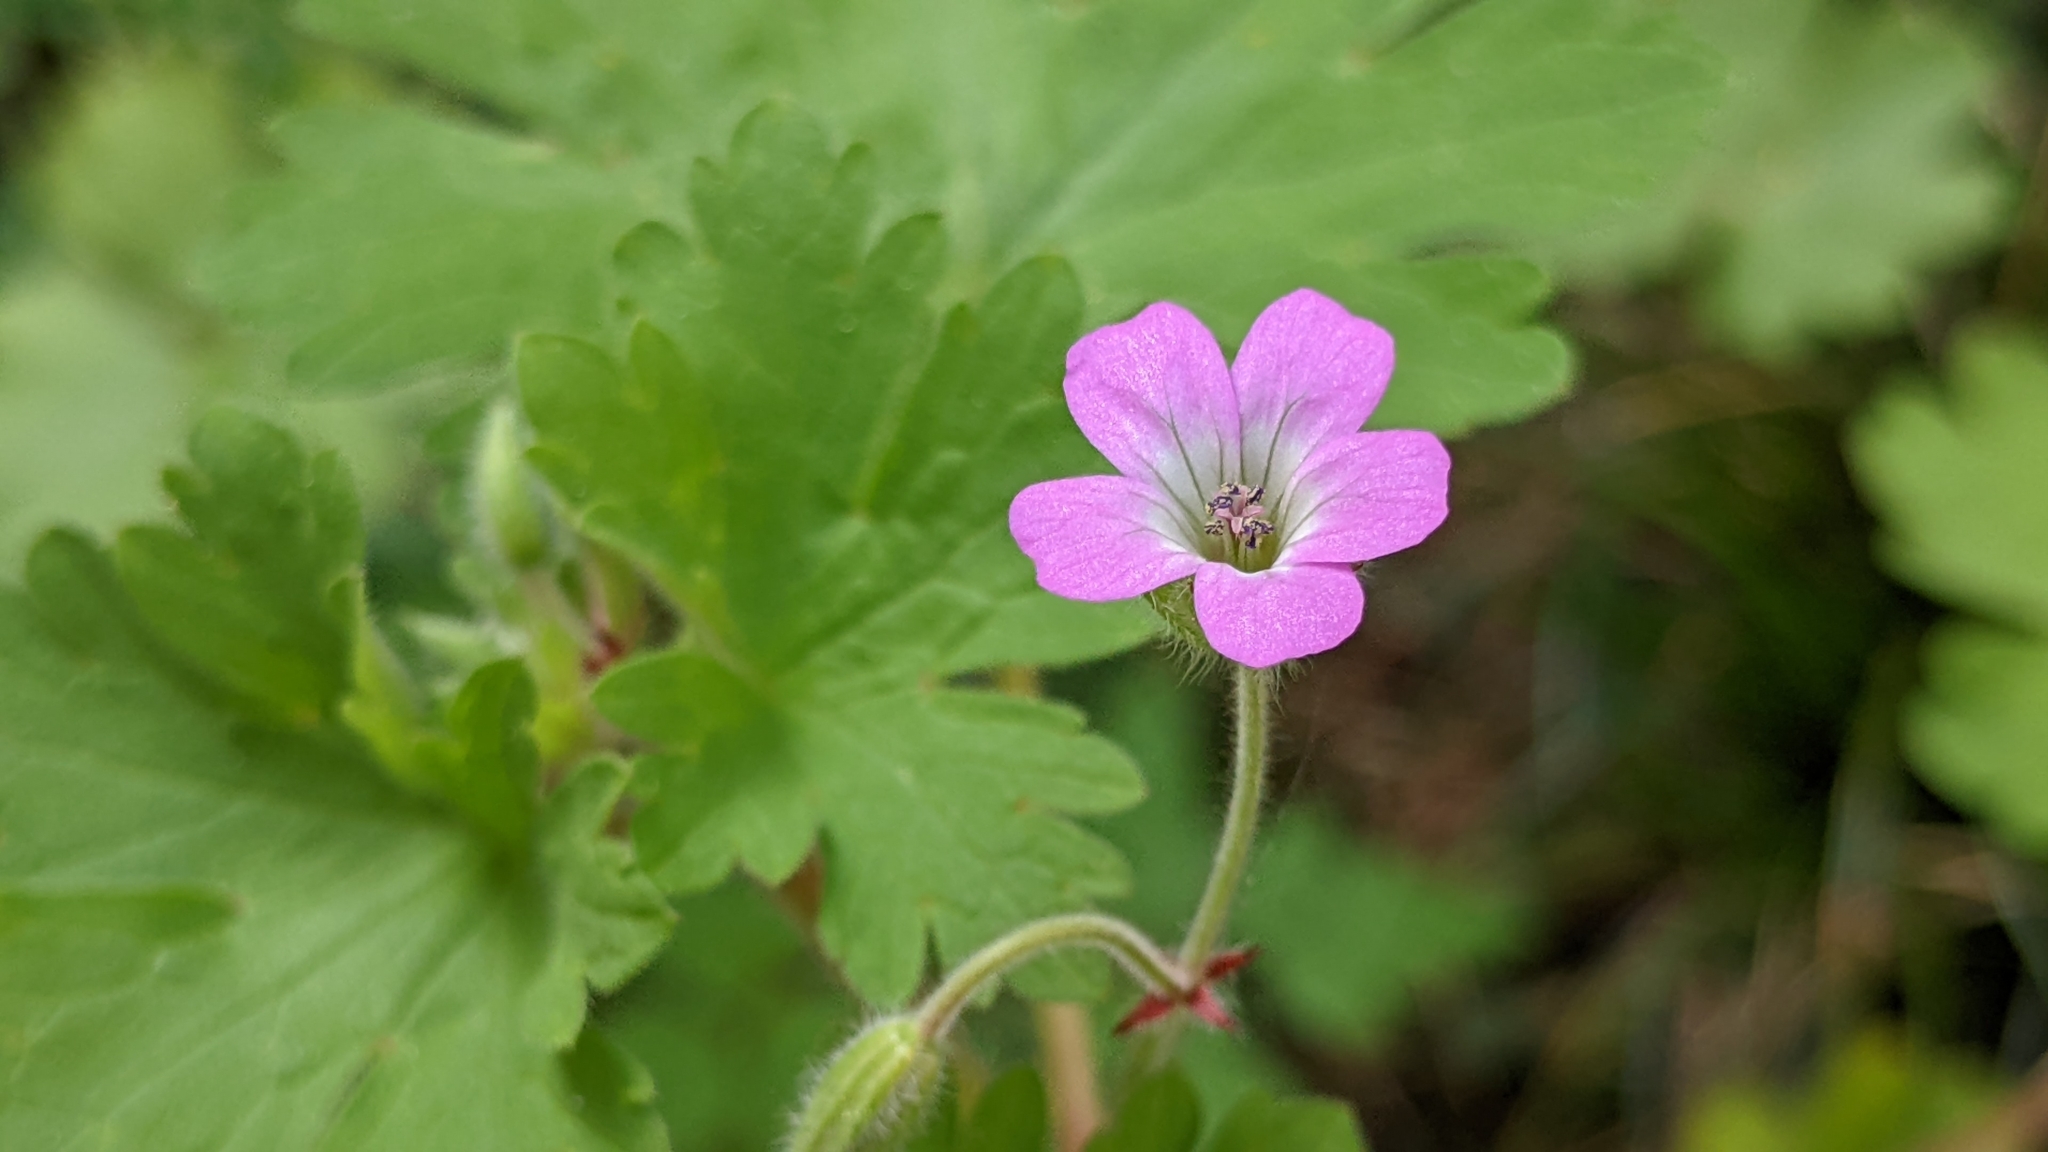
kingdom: Plantae
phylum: Tracheophyta
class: Magnoliopsida
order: Geraniales
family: Geraniaceae
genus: Geranium
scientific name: Geranium rotundifolium
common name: Round-leaved crane's-bill
